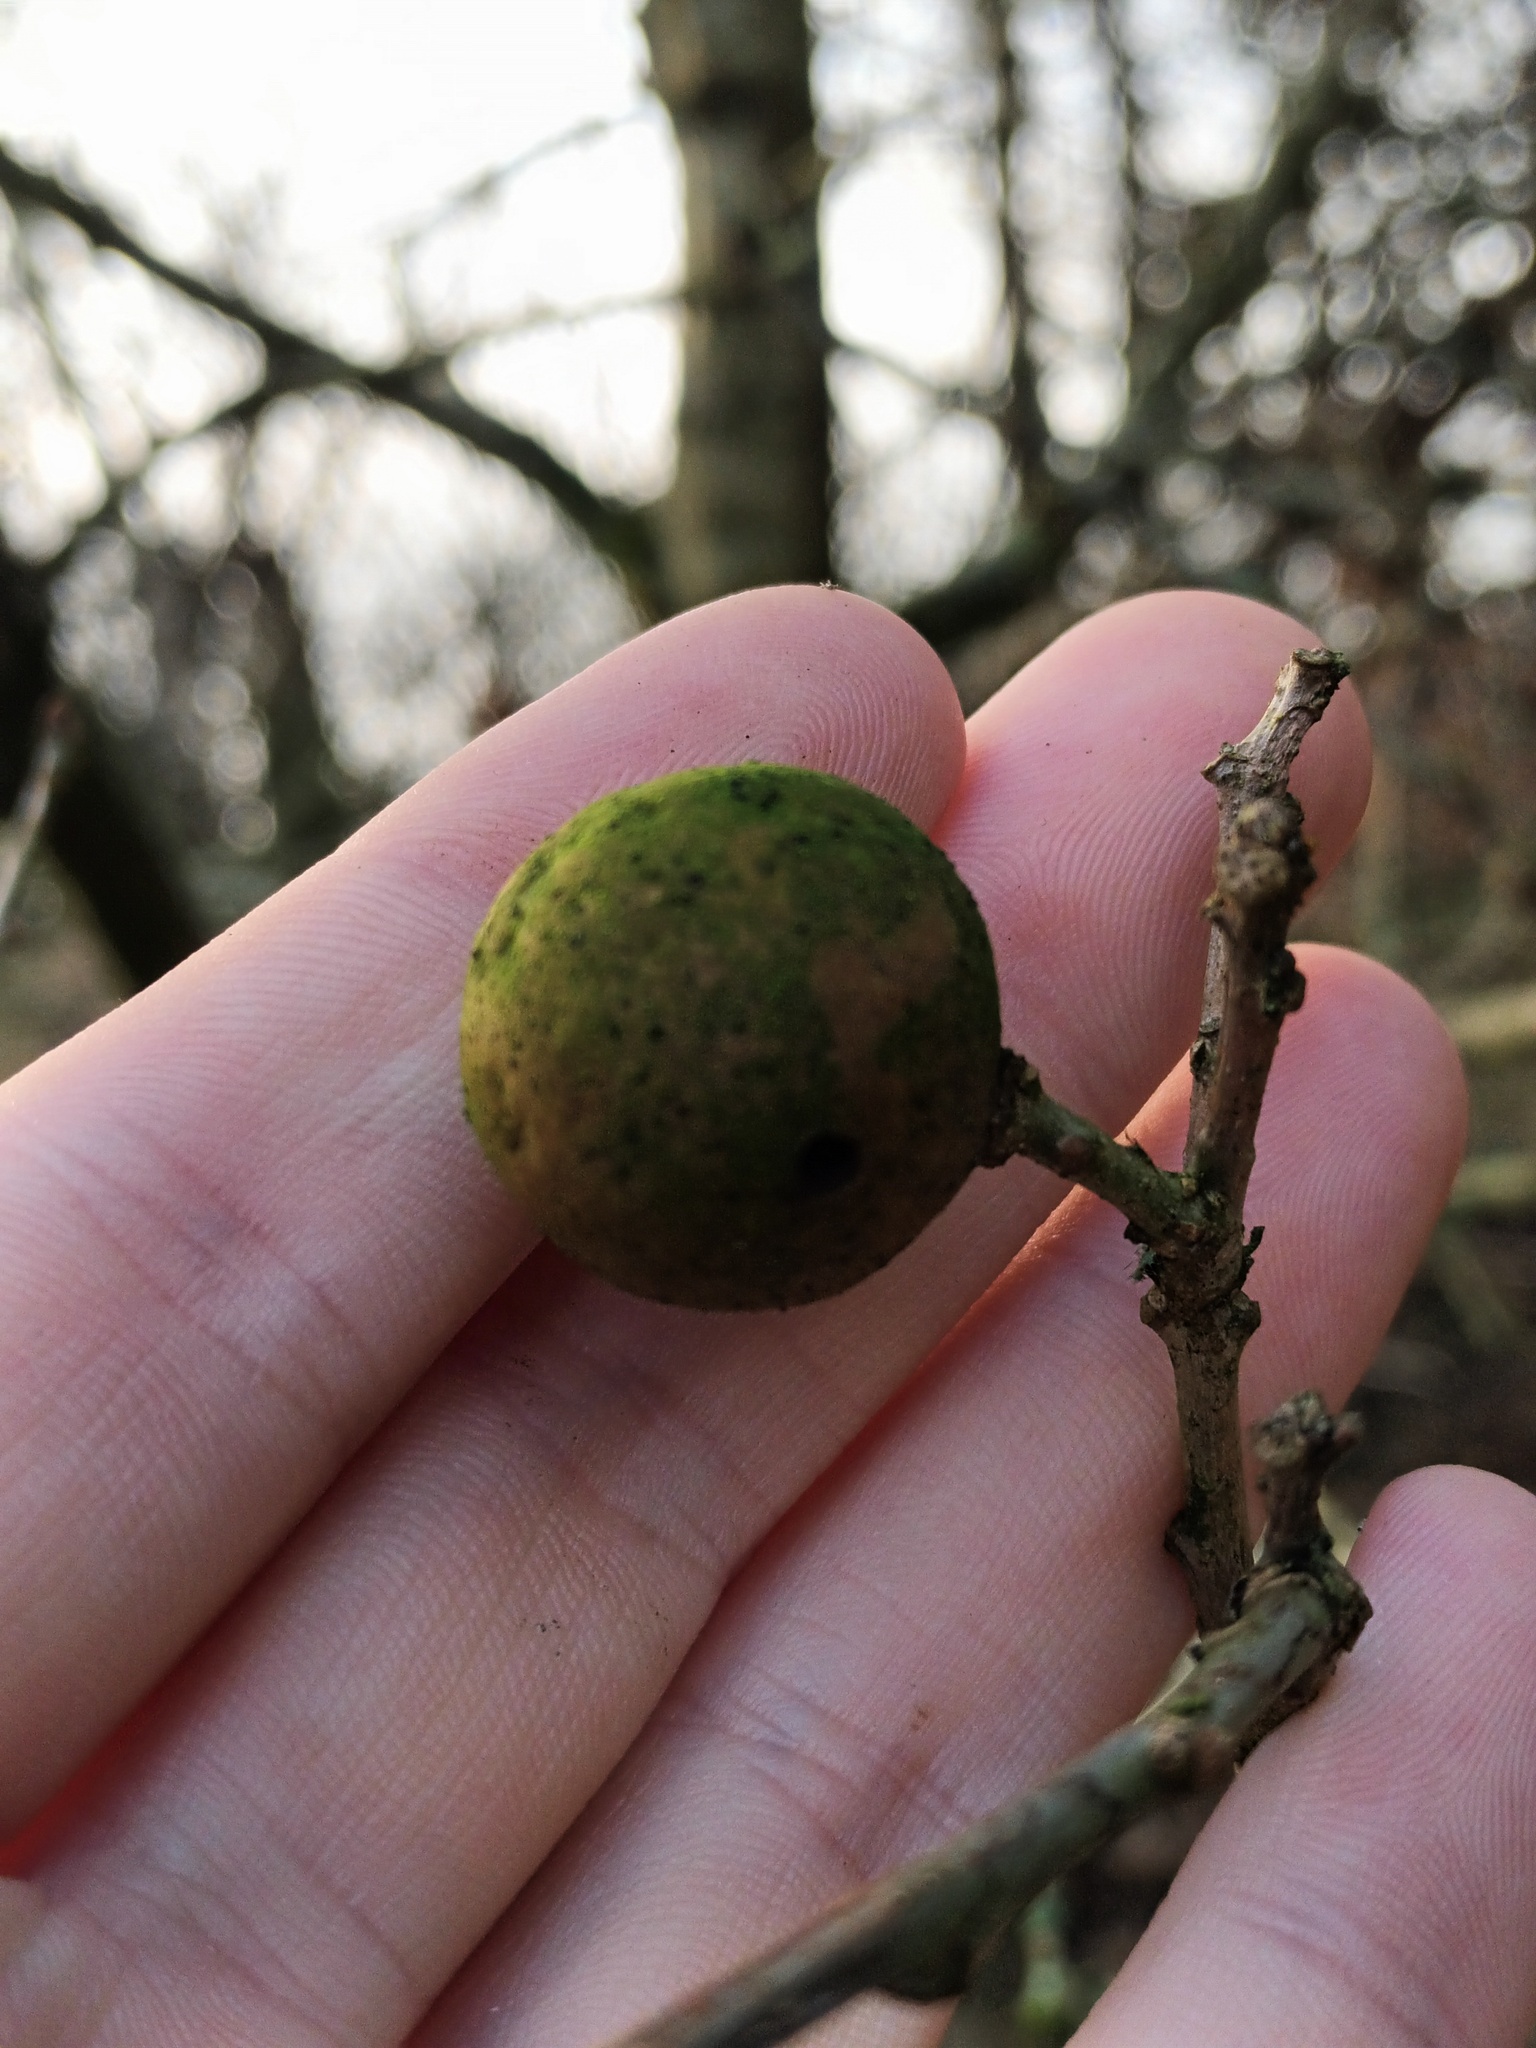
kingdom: Animalia
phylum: Arthropoda
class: Insecta
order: Hymenoptera
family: Cynipidae
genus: Andricus
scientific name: Andricus kollari
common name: Marble gall
